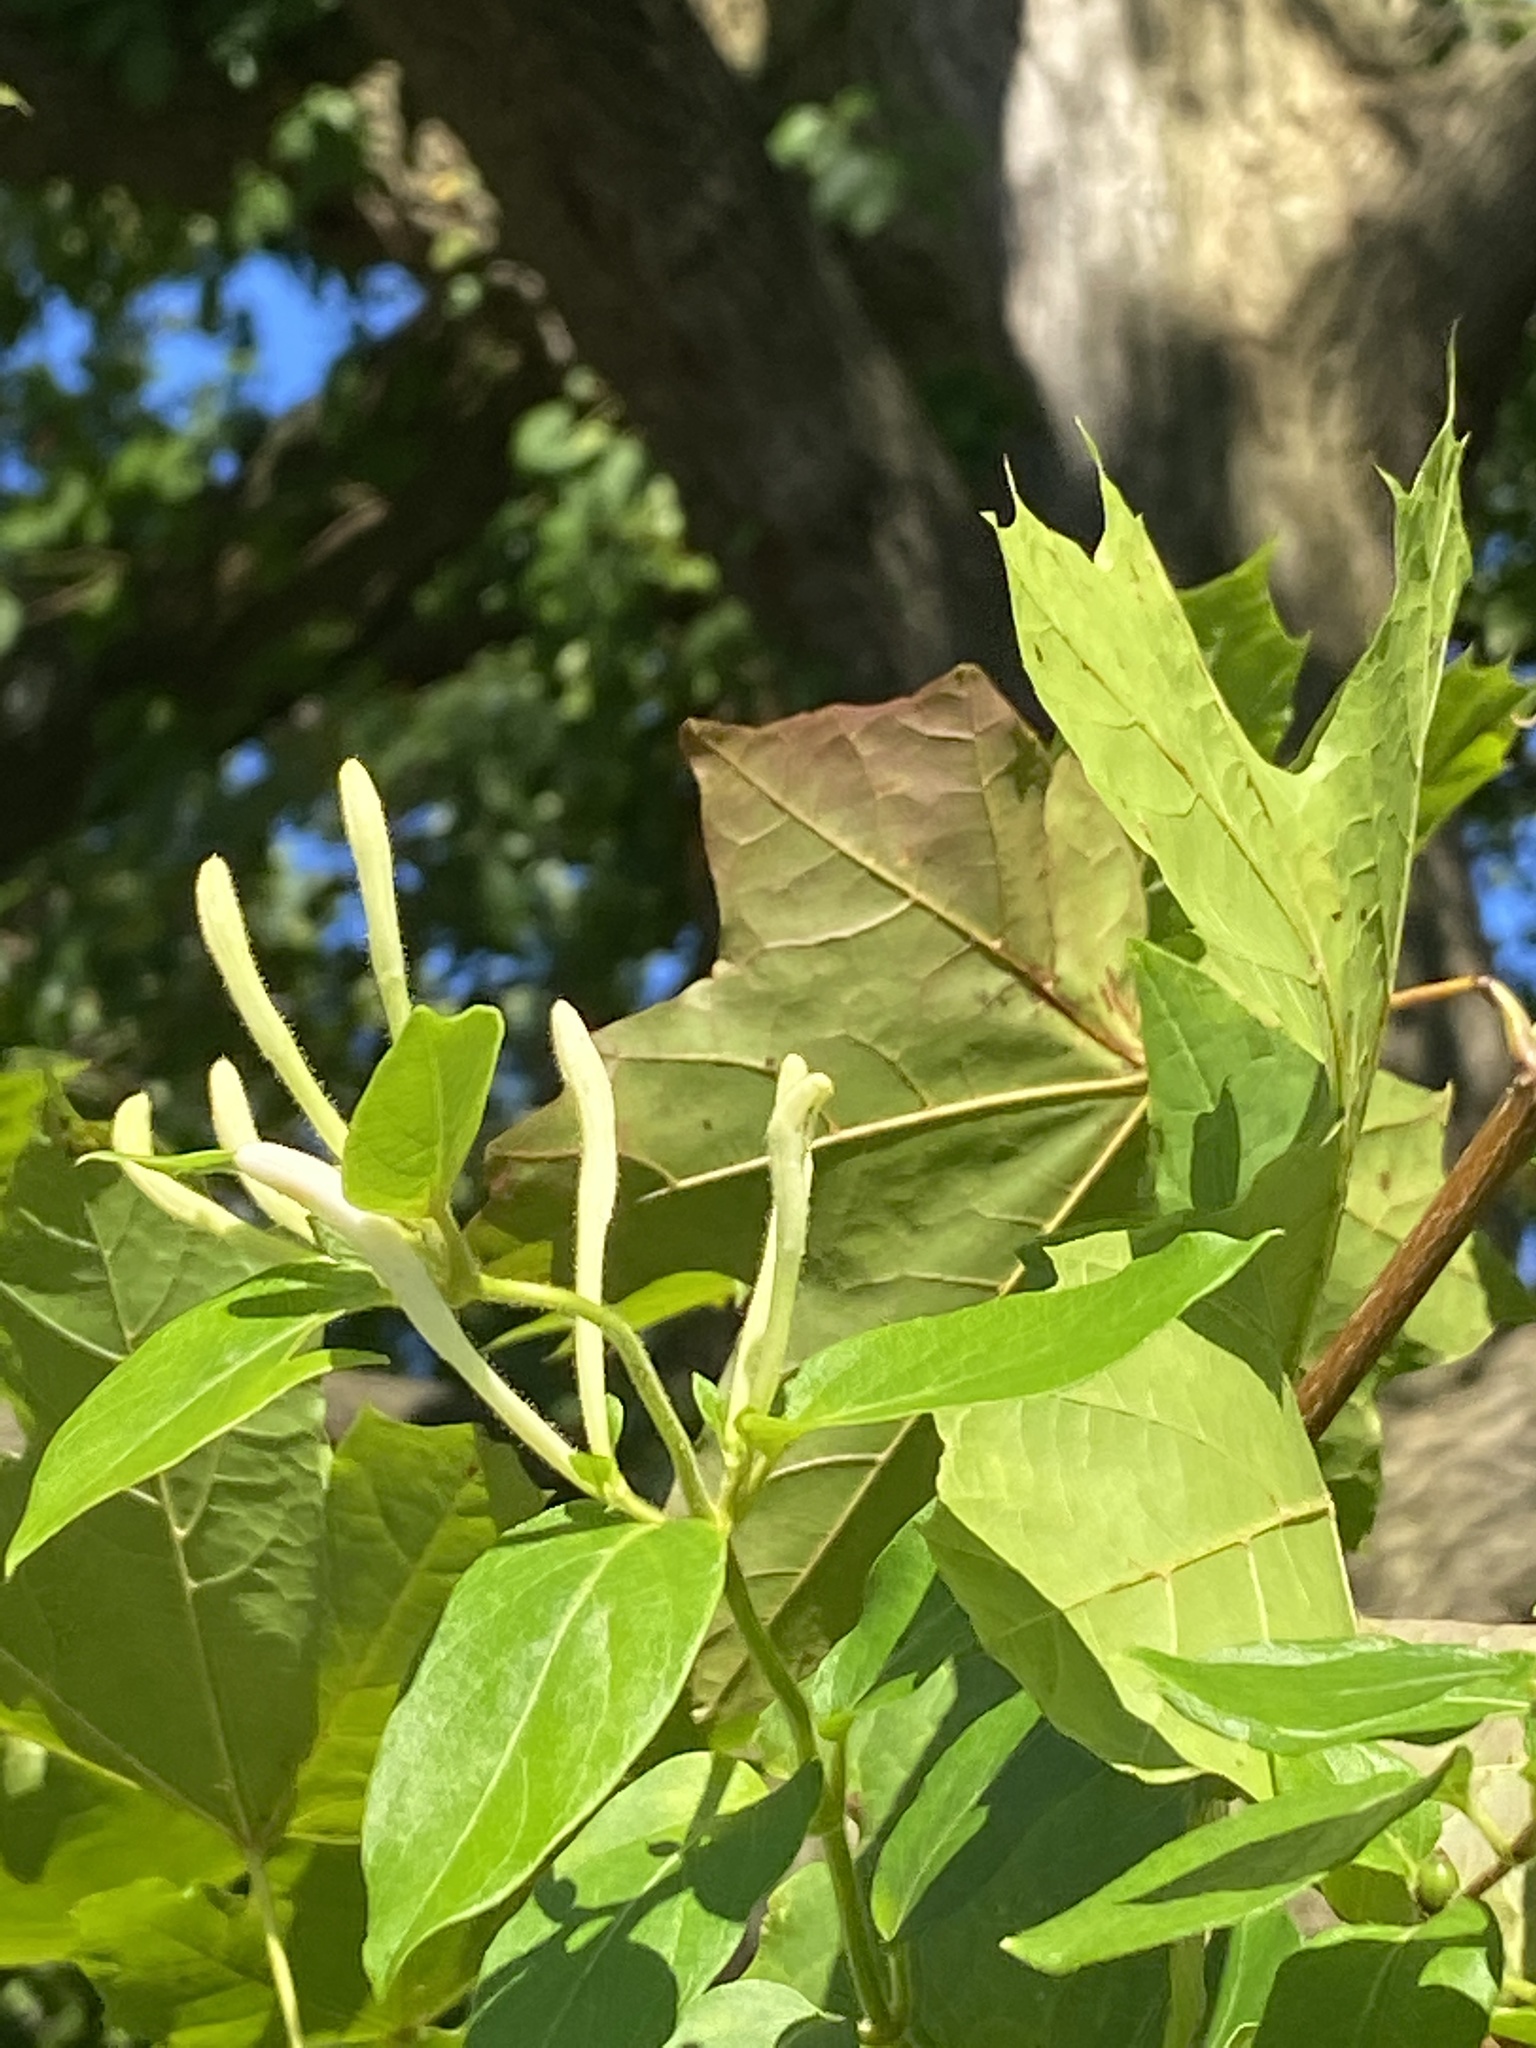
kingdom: Plantae
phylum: Tracheophyta
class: Magnoliopsida
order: Dipsacales
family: Caprifoliaceae
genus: Lonicera
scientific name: Lonicera japonica
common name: Japanese honeysuckle
